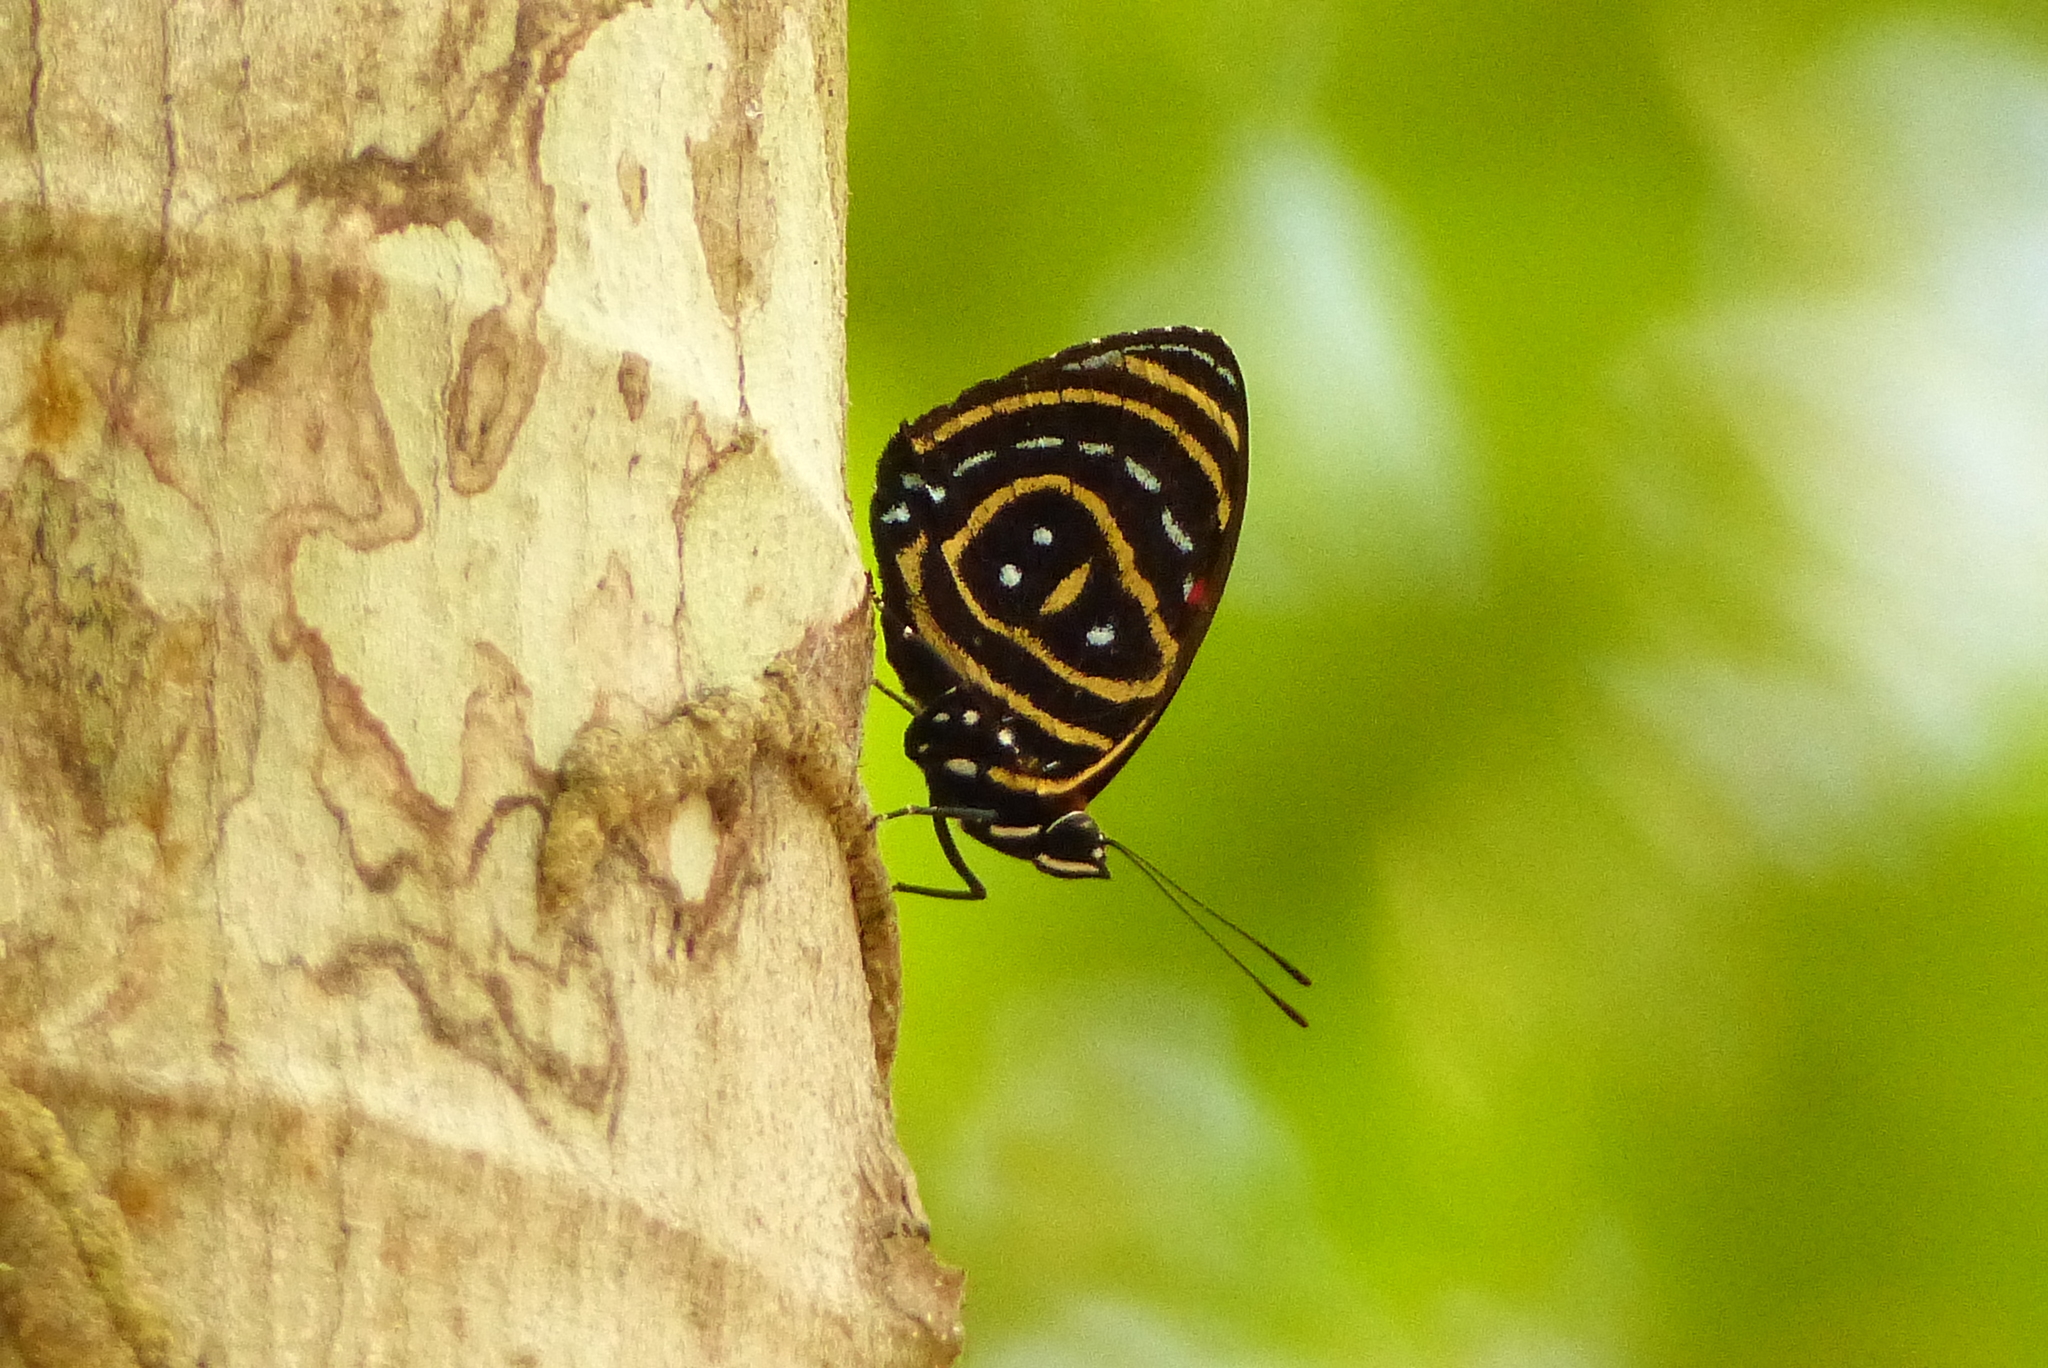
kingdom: Animalia
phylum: Arthropoda
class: Insecta
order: Lepidoptera
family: Nymphalidae
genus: Catagramma
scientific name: Catagramma astarte
